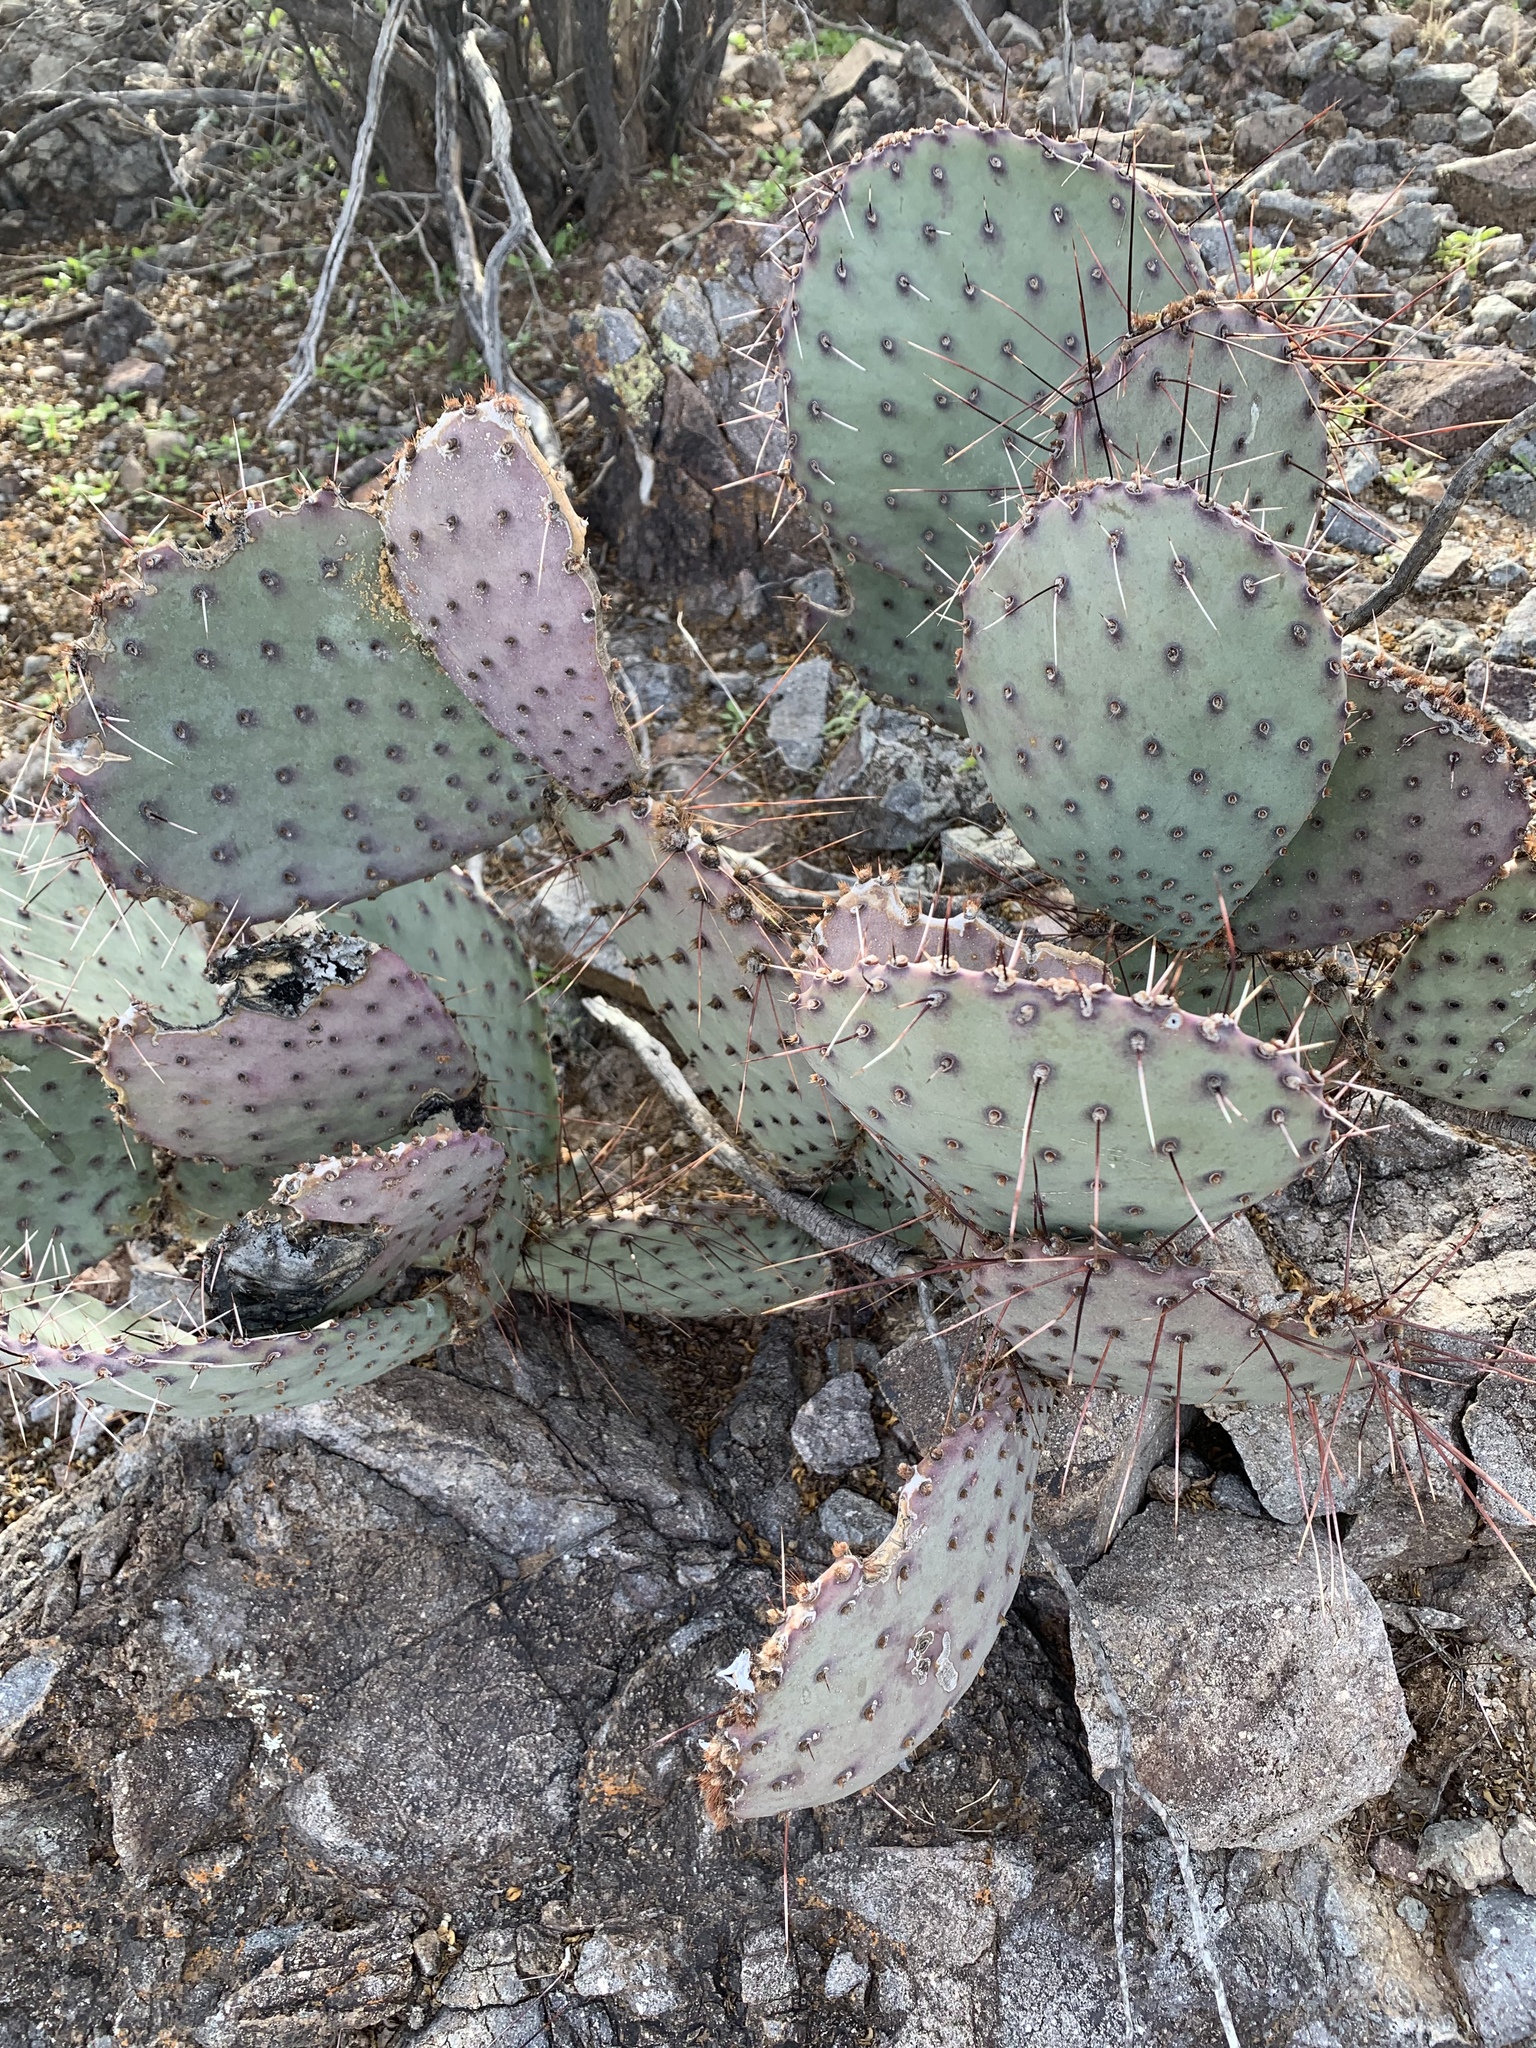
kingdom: Plantae
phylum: Tracheophyta
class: Magnoliopsida
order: Caryophyllales
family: Cactaceae
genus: Opuntia
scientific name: Opuntia macrocentra
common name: Purple prickly-pear
